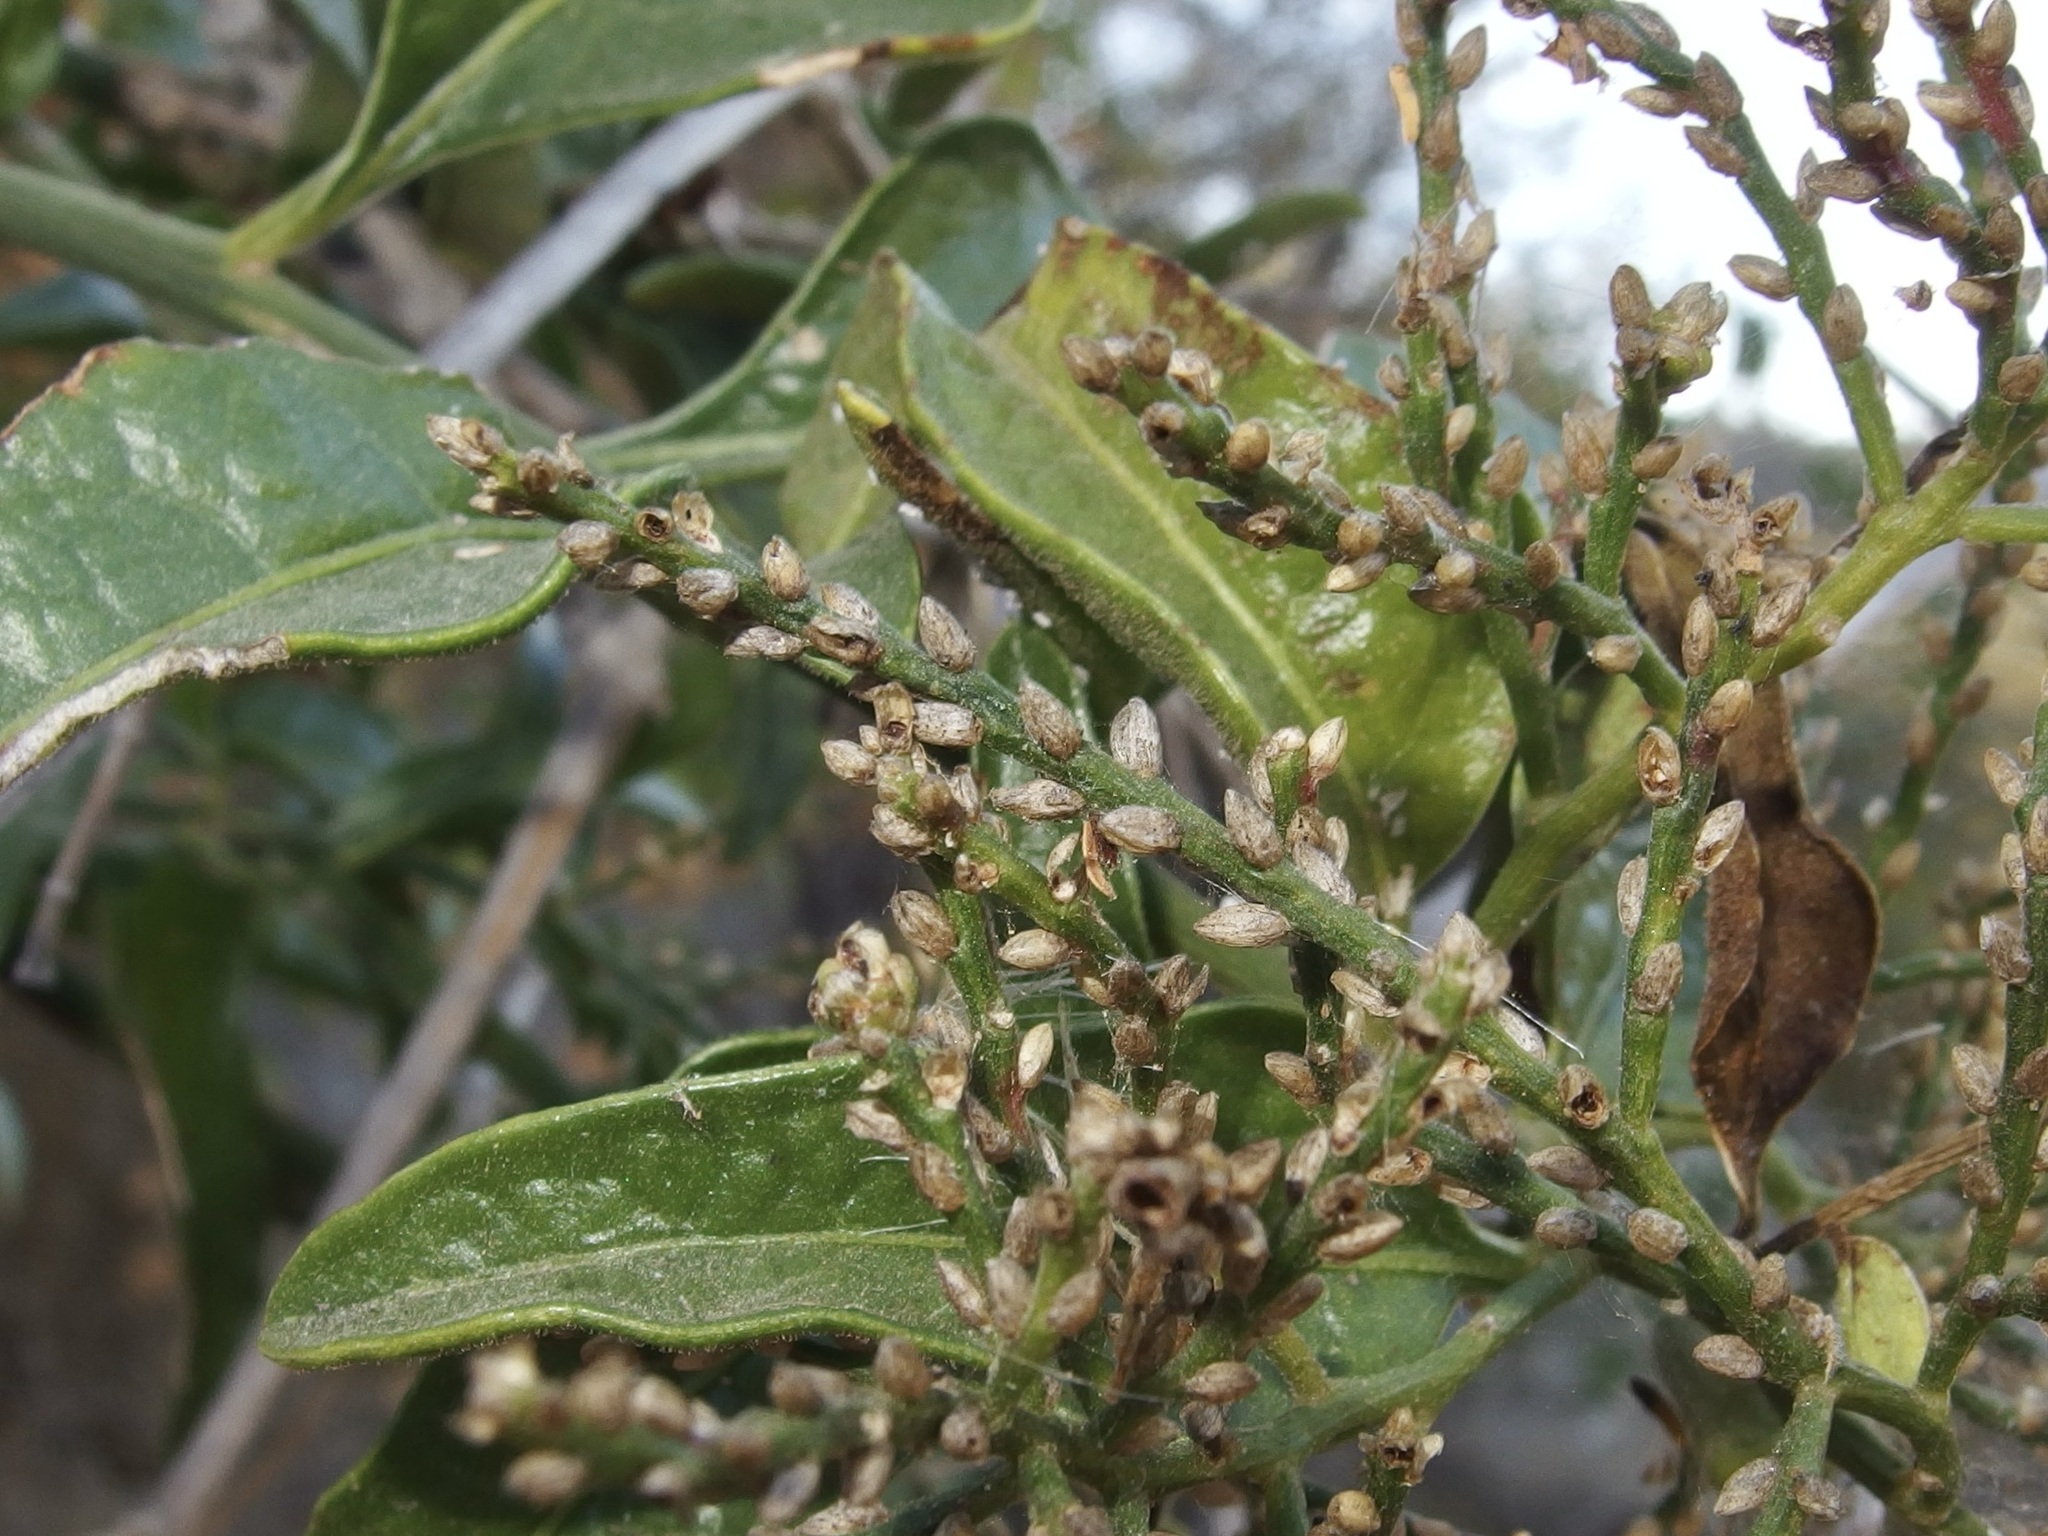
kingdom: Plantae
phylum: Tracheophyta
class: Magnoliopsida
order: Caryophyllales
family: Amaranthaceae
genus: Celosia
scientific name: Celosia floribunda
